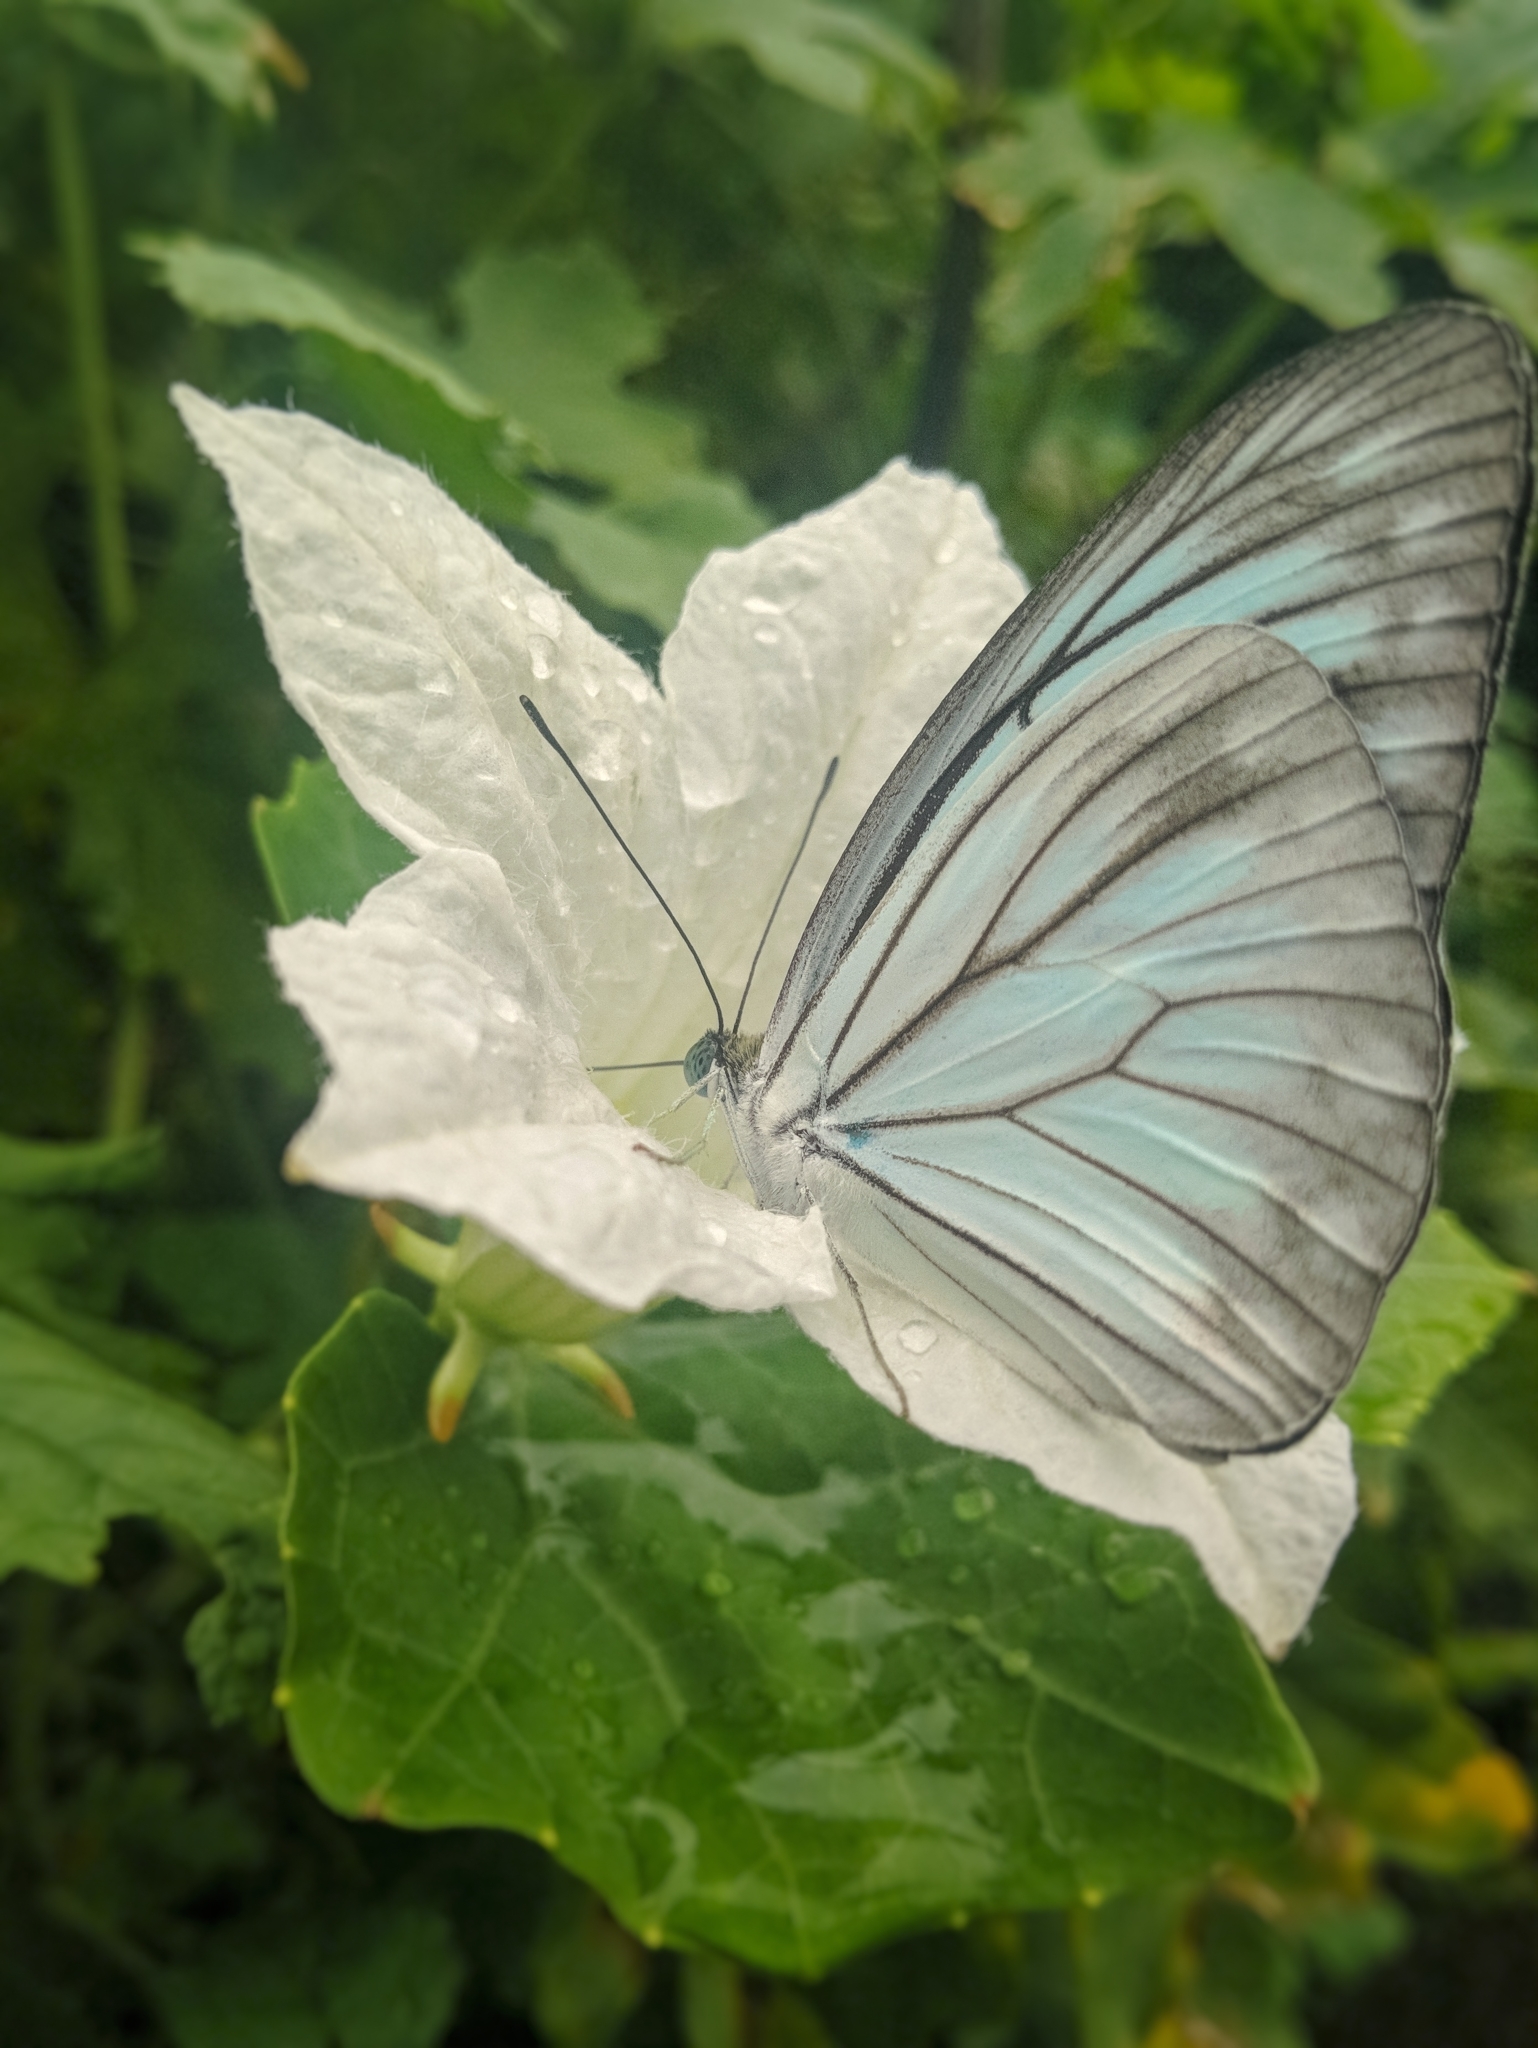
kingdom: Animalia
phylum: Arthropoda
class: Insecta
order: Lepidoptera
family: Pieridae
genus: Pareronia
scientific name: Pareronia hippia
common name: Indian wanderer
